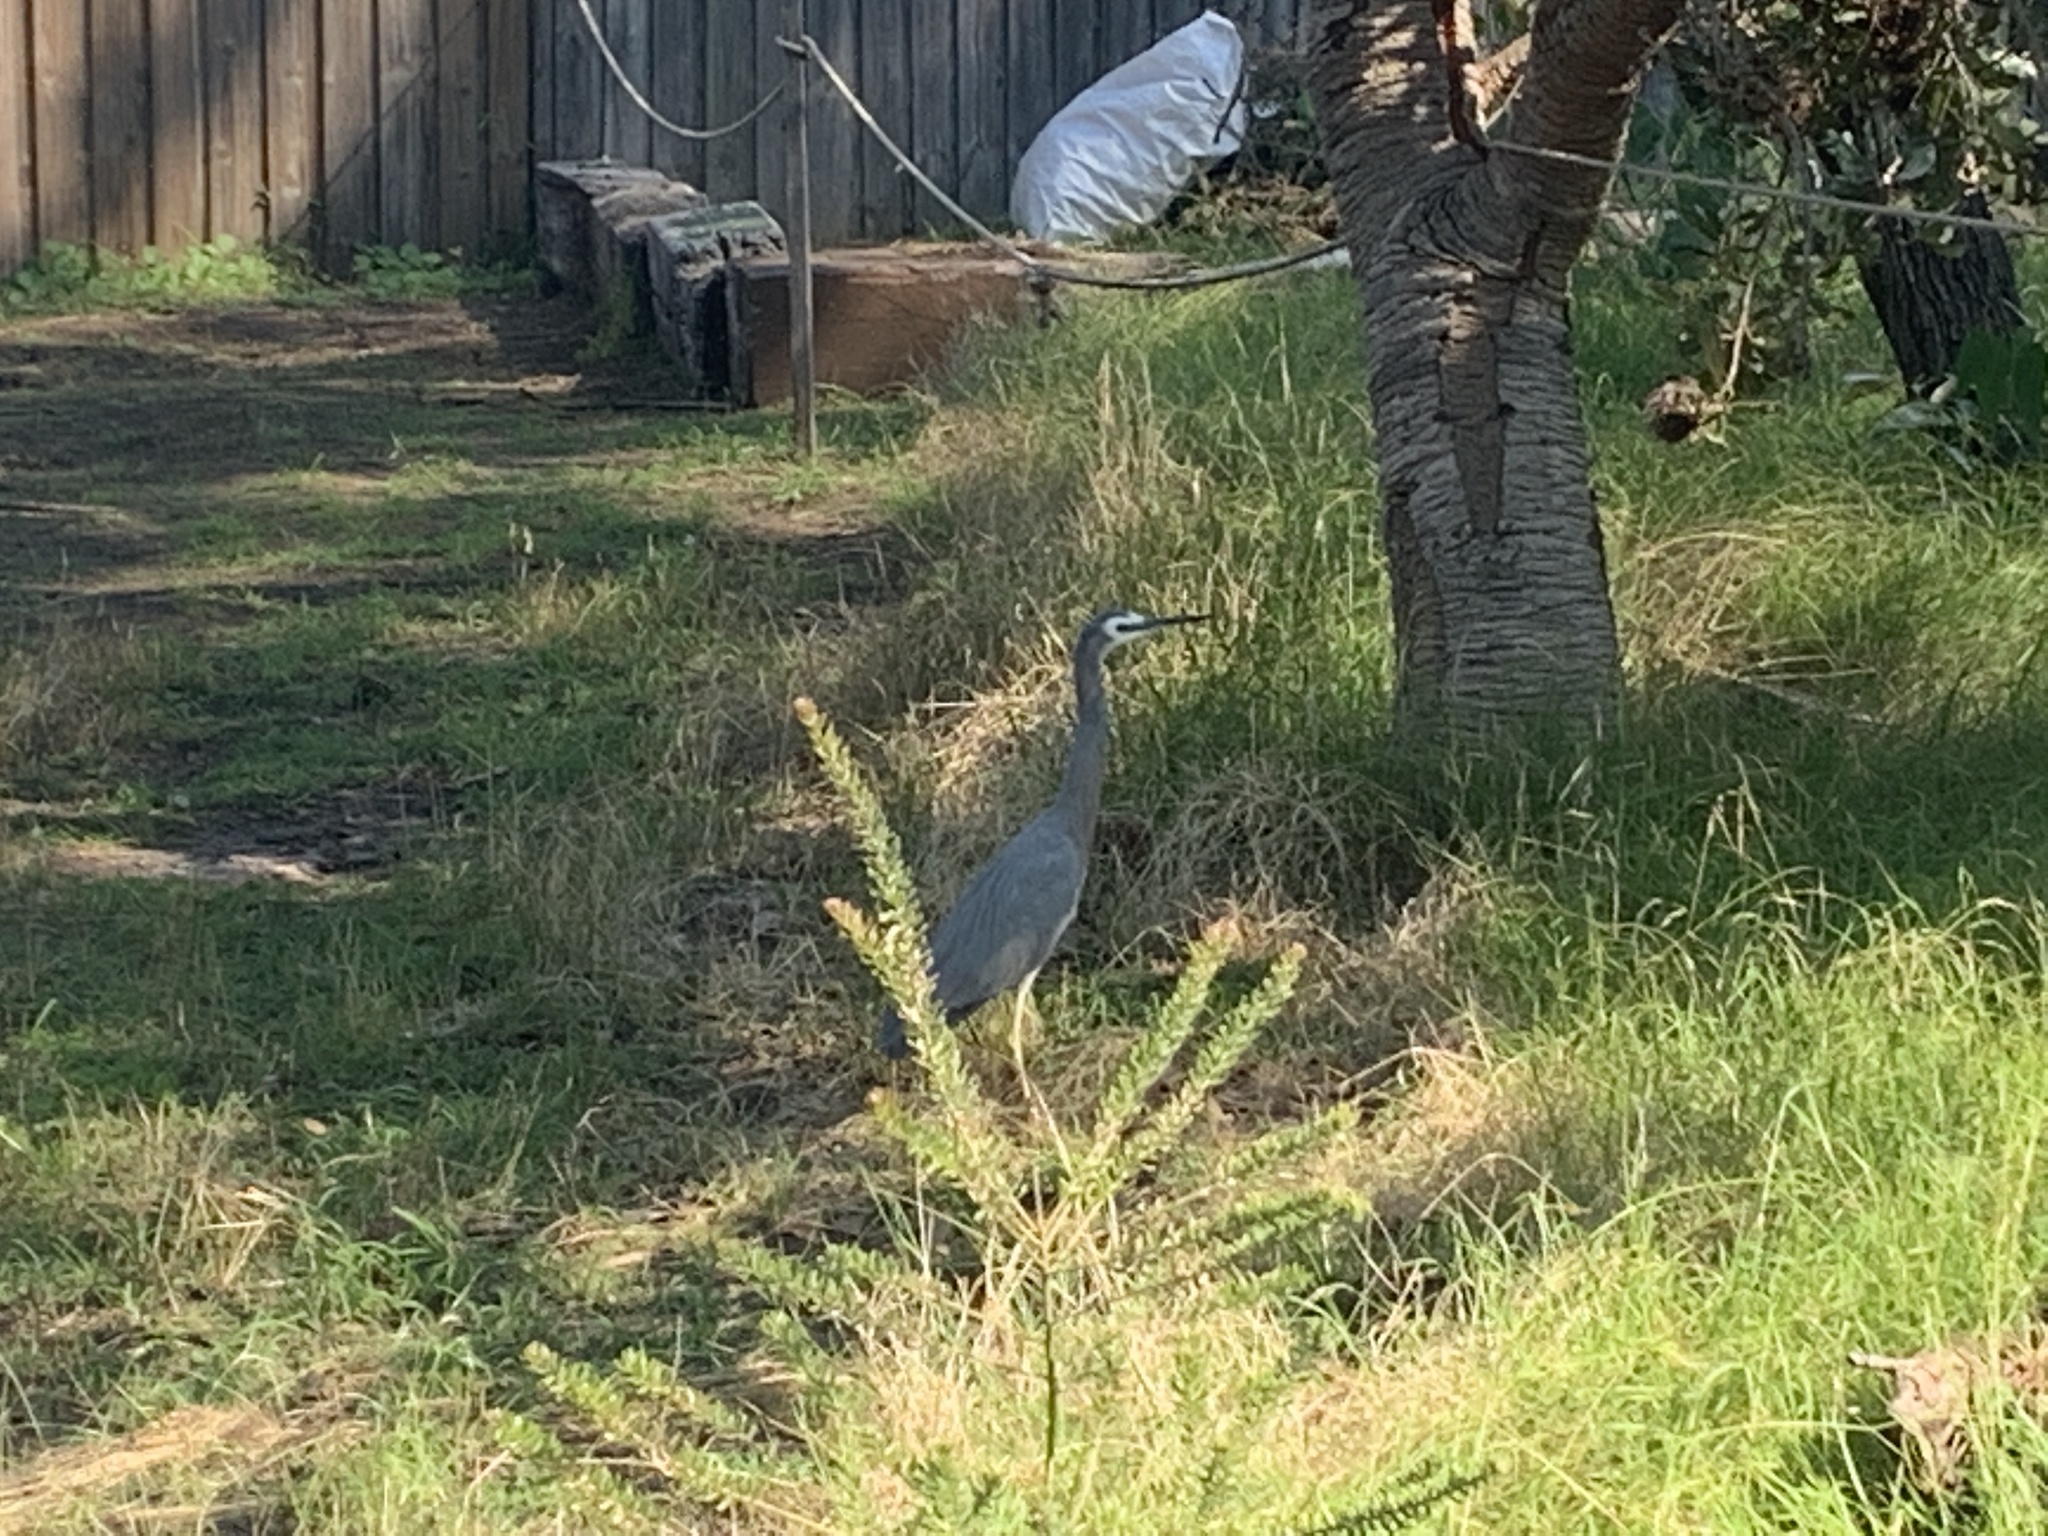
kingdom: Animalia
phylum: Chordata
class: Aves
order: Pelecaniformes
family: Ardeidae
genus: Egretta
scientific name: Egretta novaehollandiae
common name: White-faced heron
